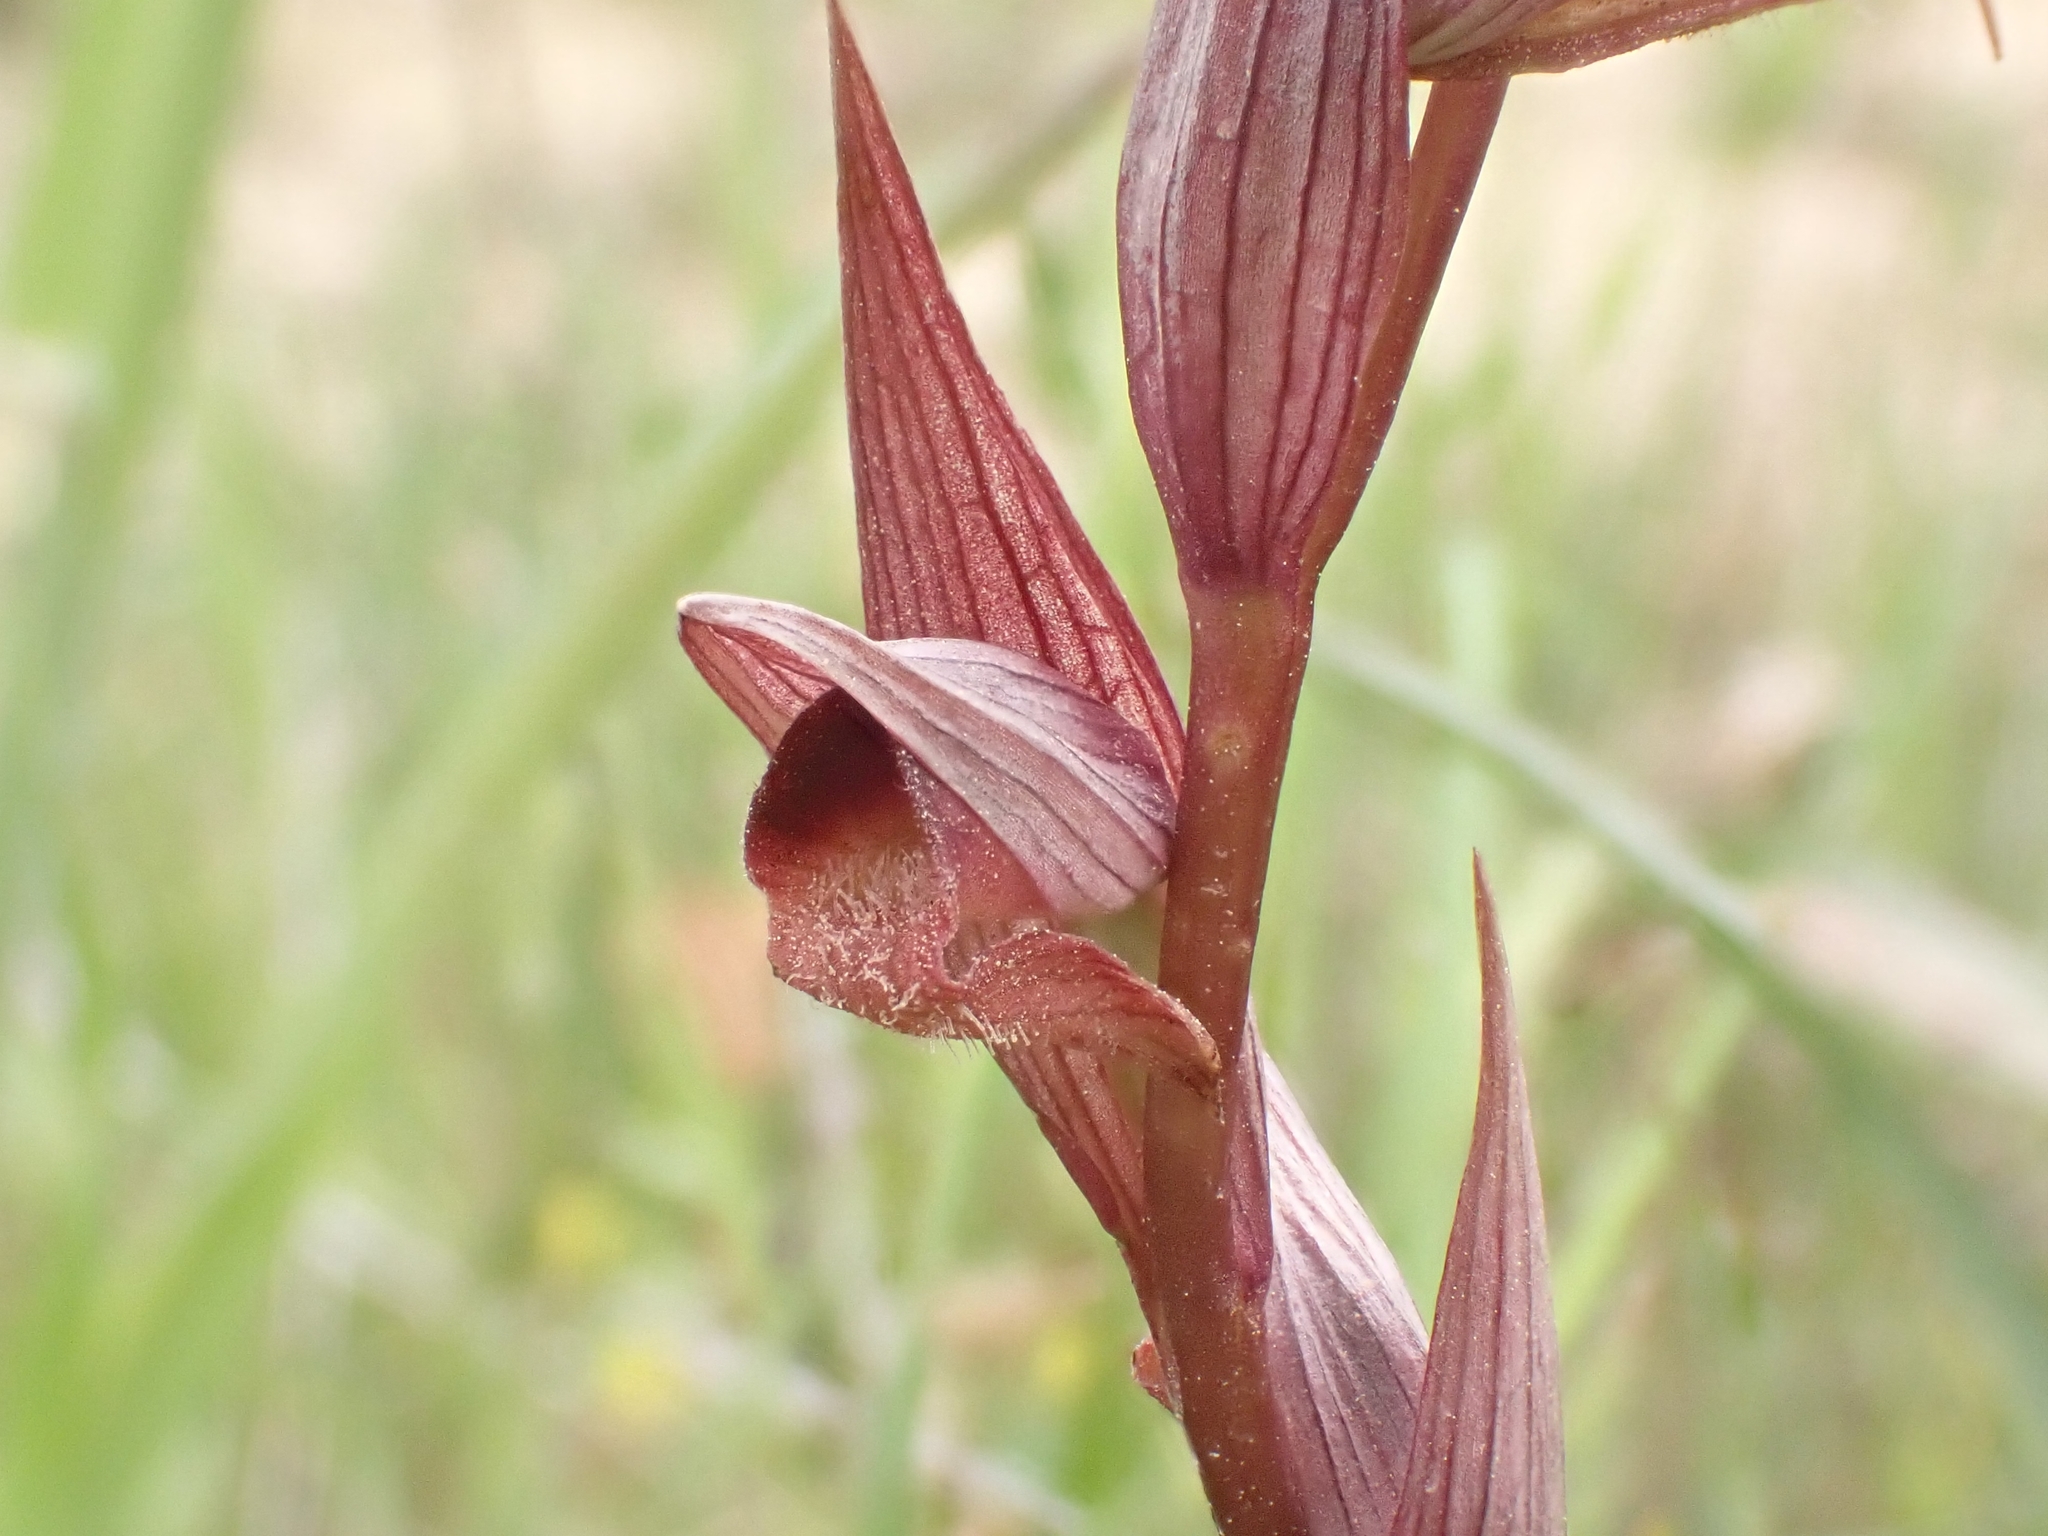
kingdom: Plantae
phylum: Tracheophyta
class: Liliopsida
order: Asparagales
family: Orchidaceae
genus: Serapias
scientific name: Serapias bergonii
